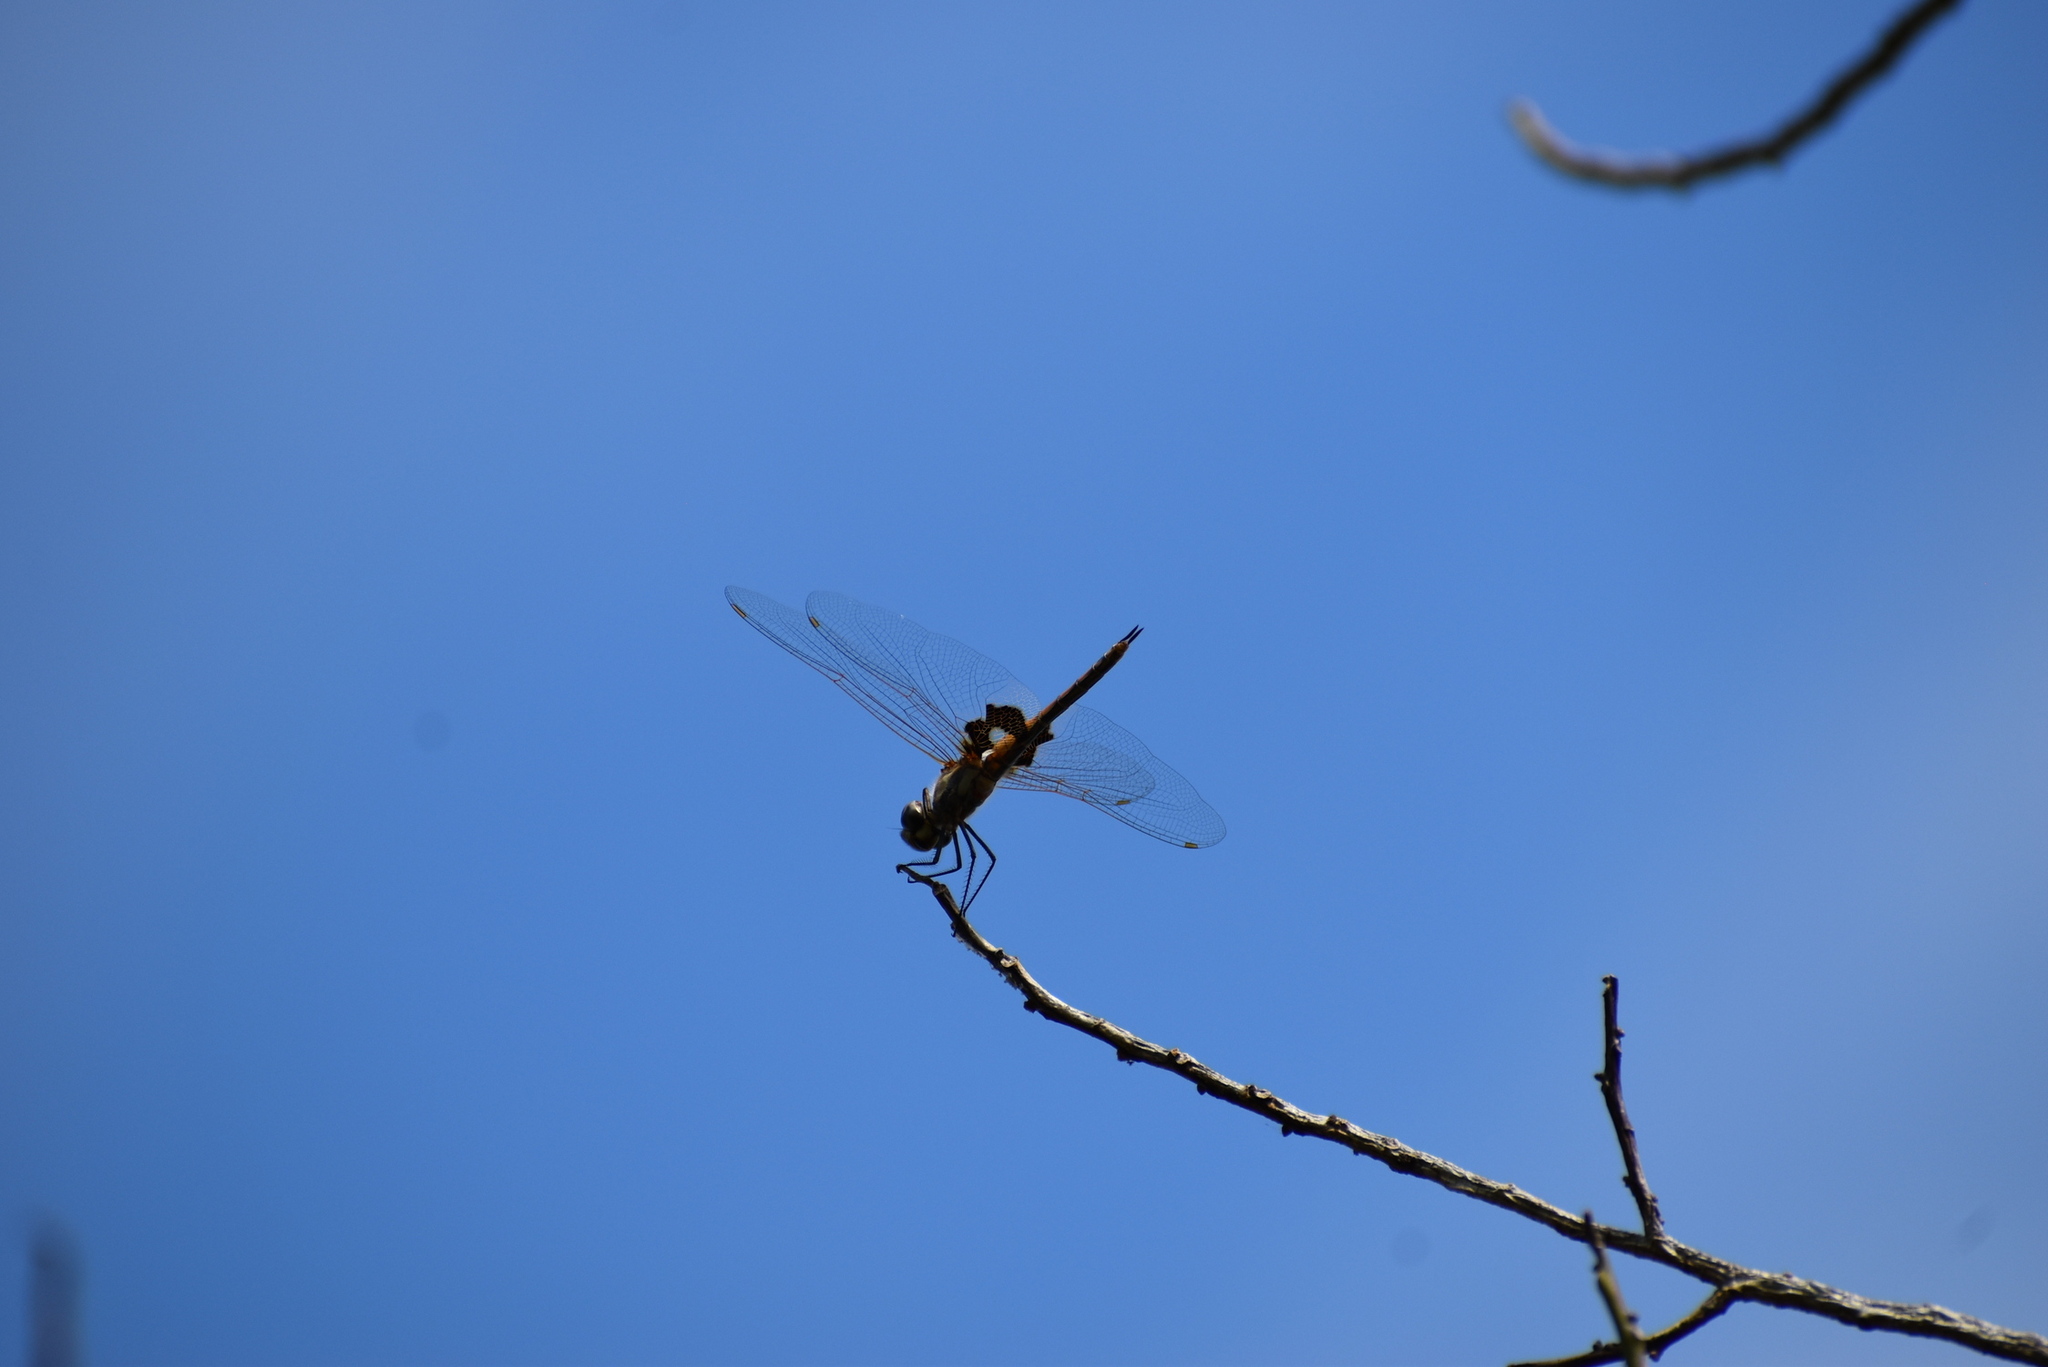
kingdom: Animalia
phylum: Arthropoda
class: Insecta
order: Odonata
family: Libellulidae
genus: Tramea
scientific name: Tramea loewii
